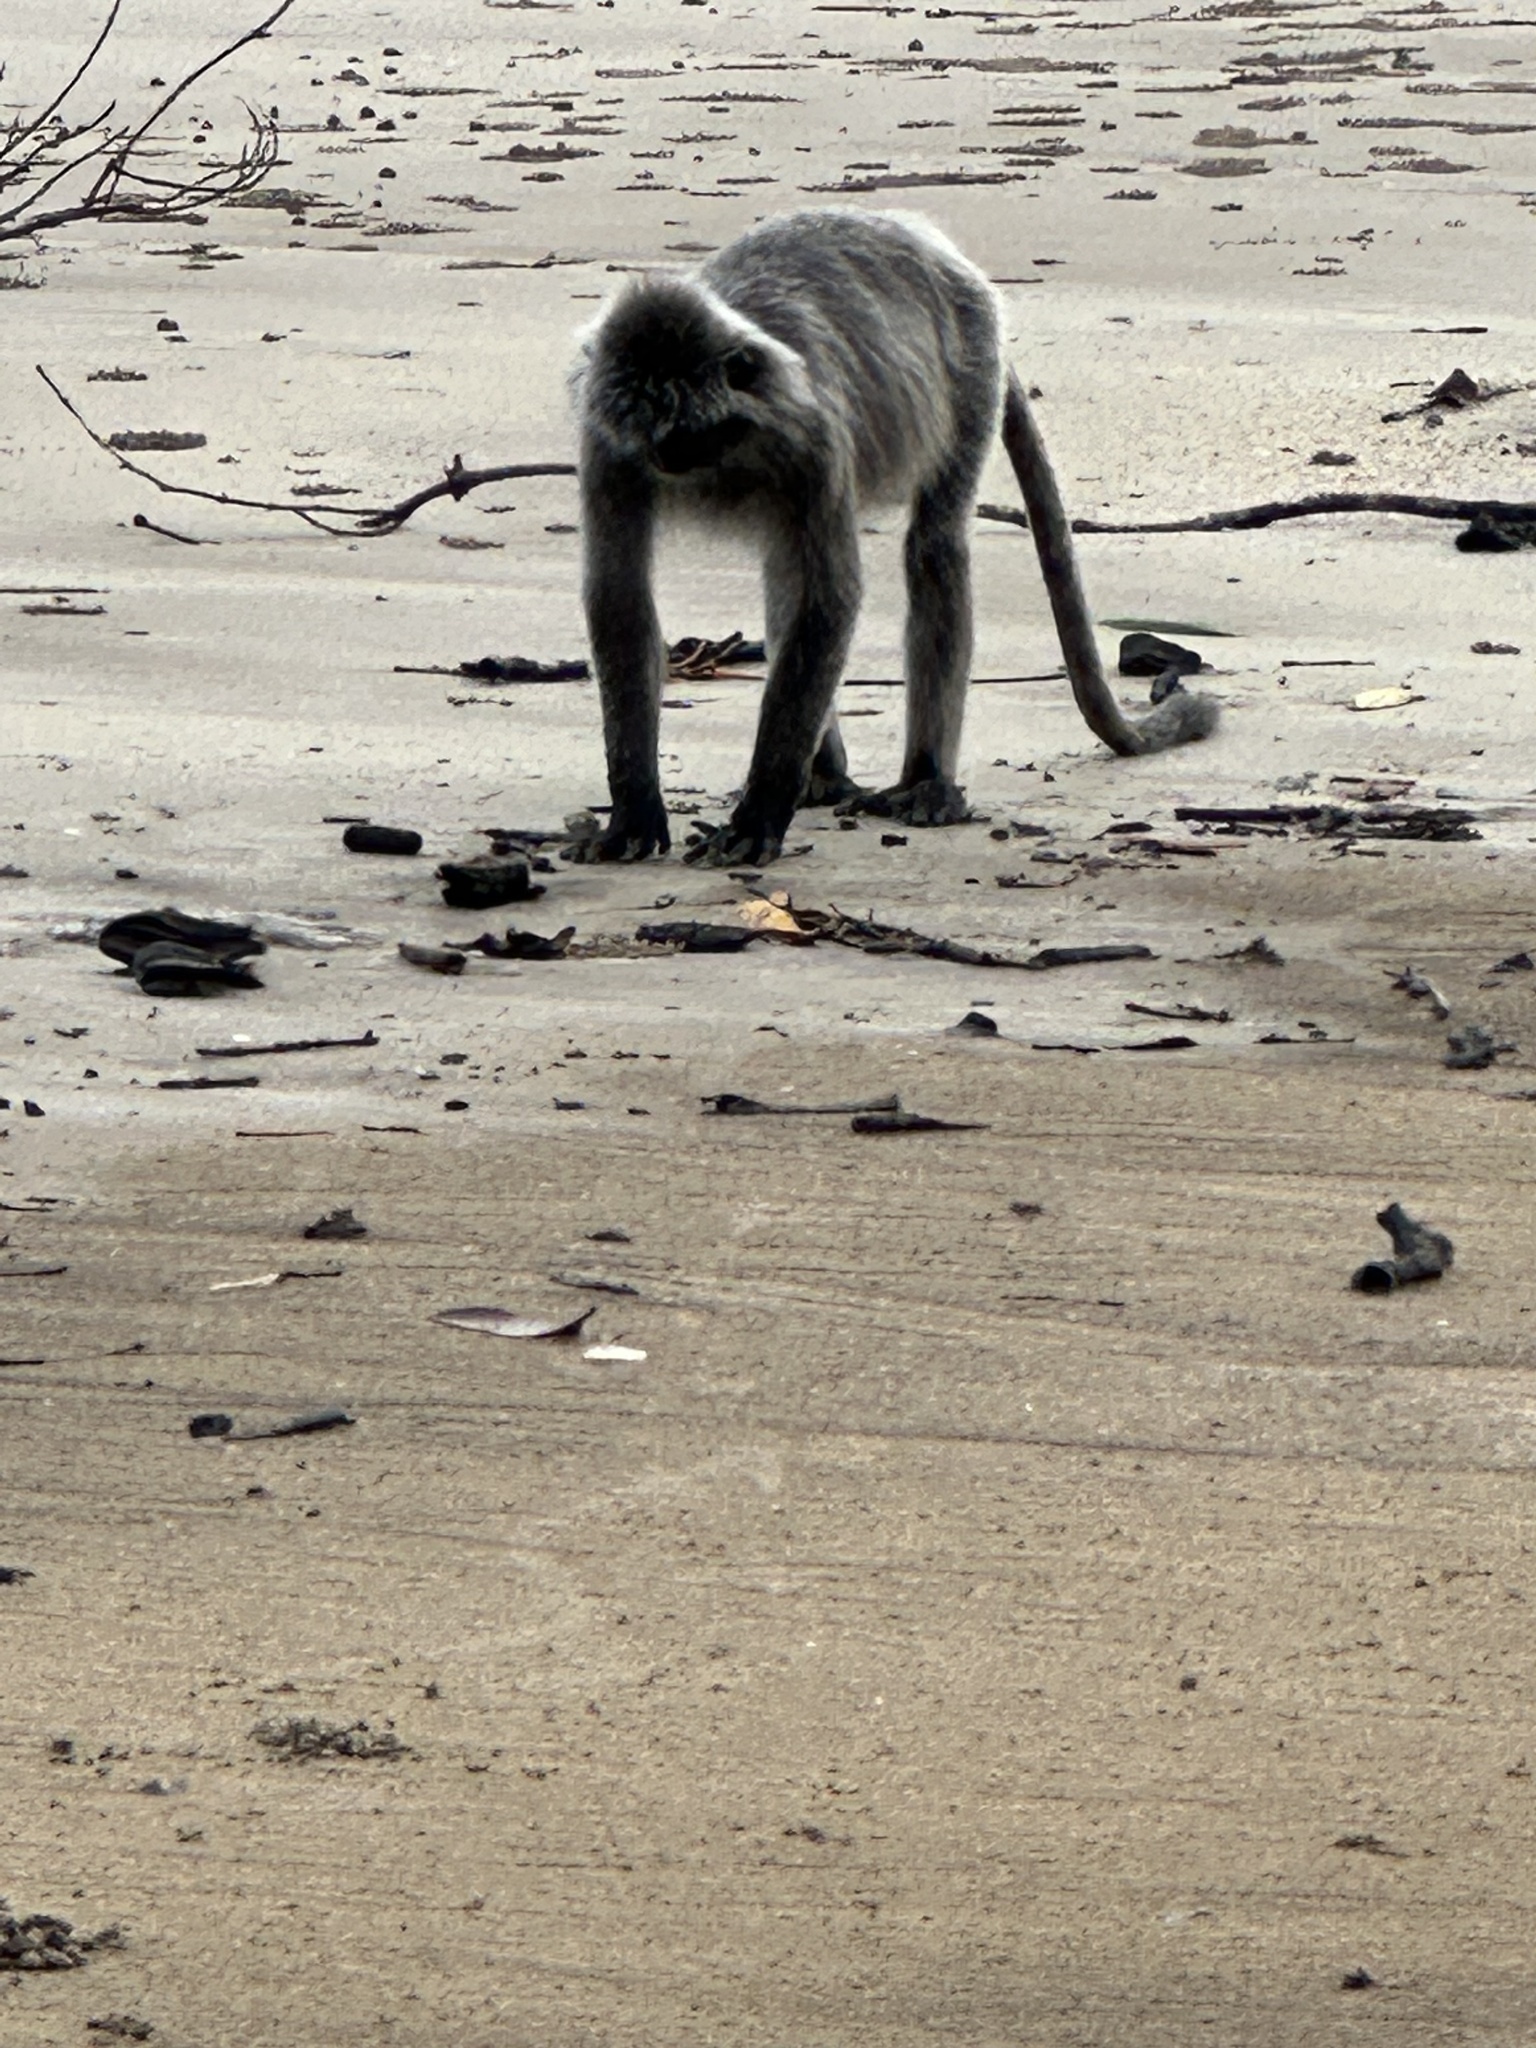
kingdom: Animalia
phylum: Chordata
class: Mammalia
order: Primates
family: Cercopithecidae
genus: Trachypithecus
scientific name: Trachypithecus cristatus
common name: Silvery lutung
